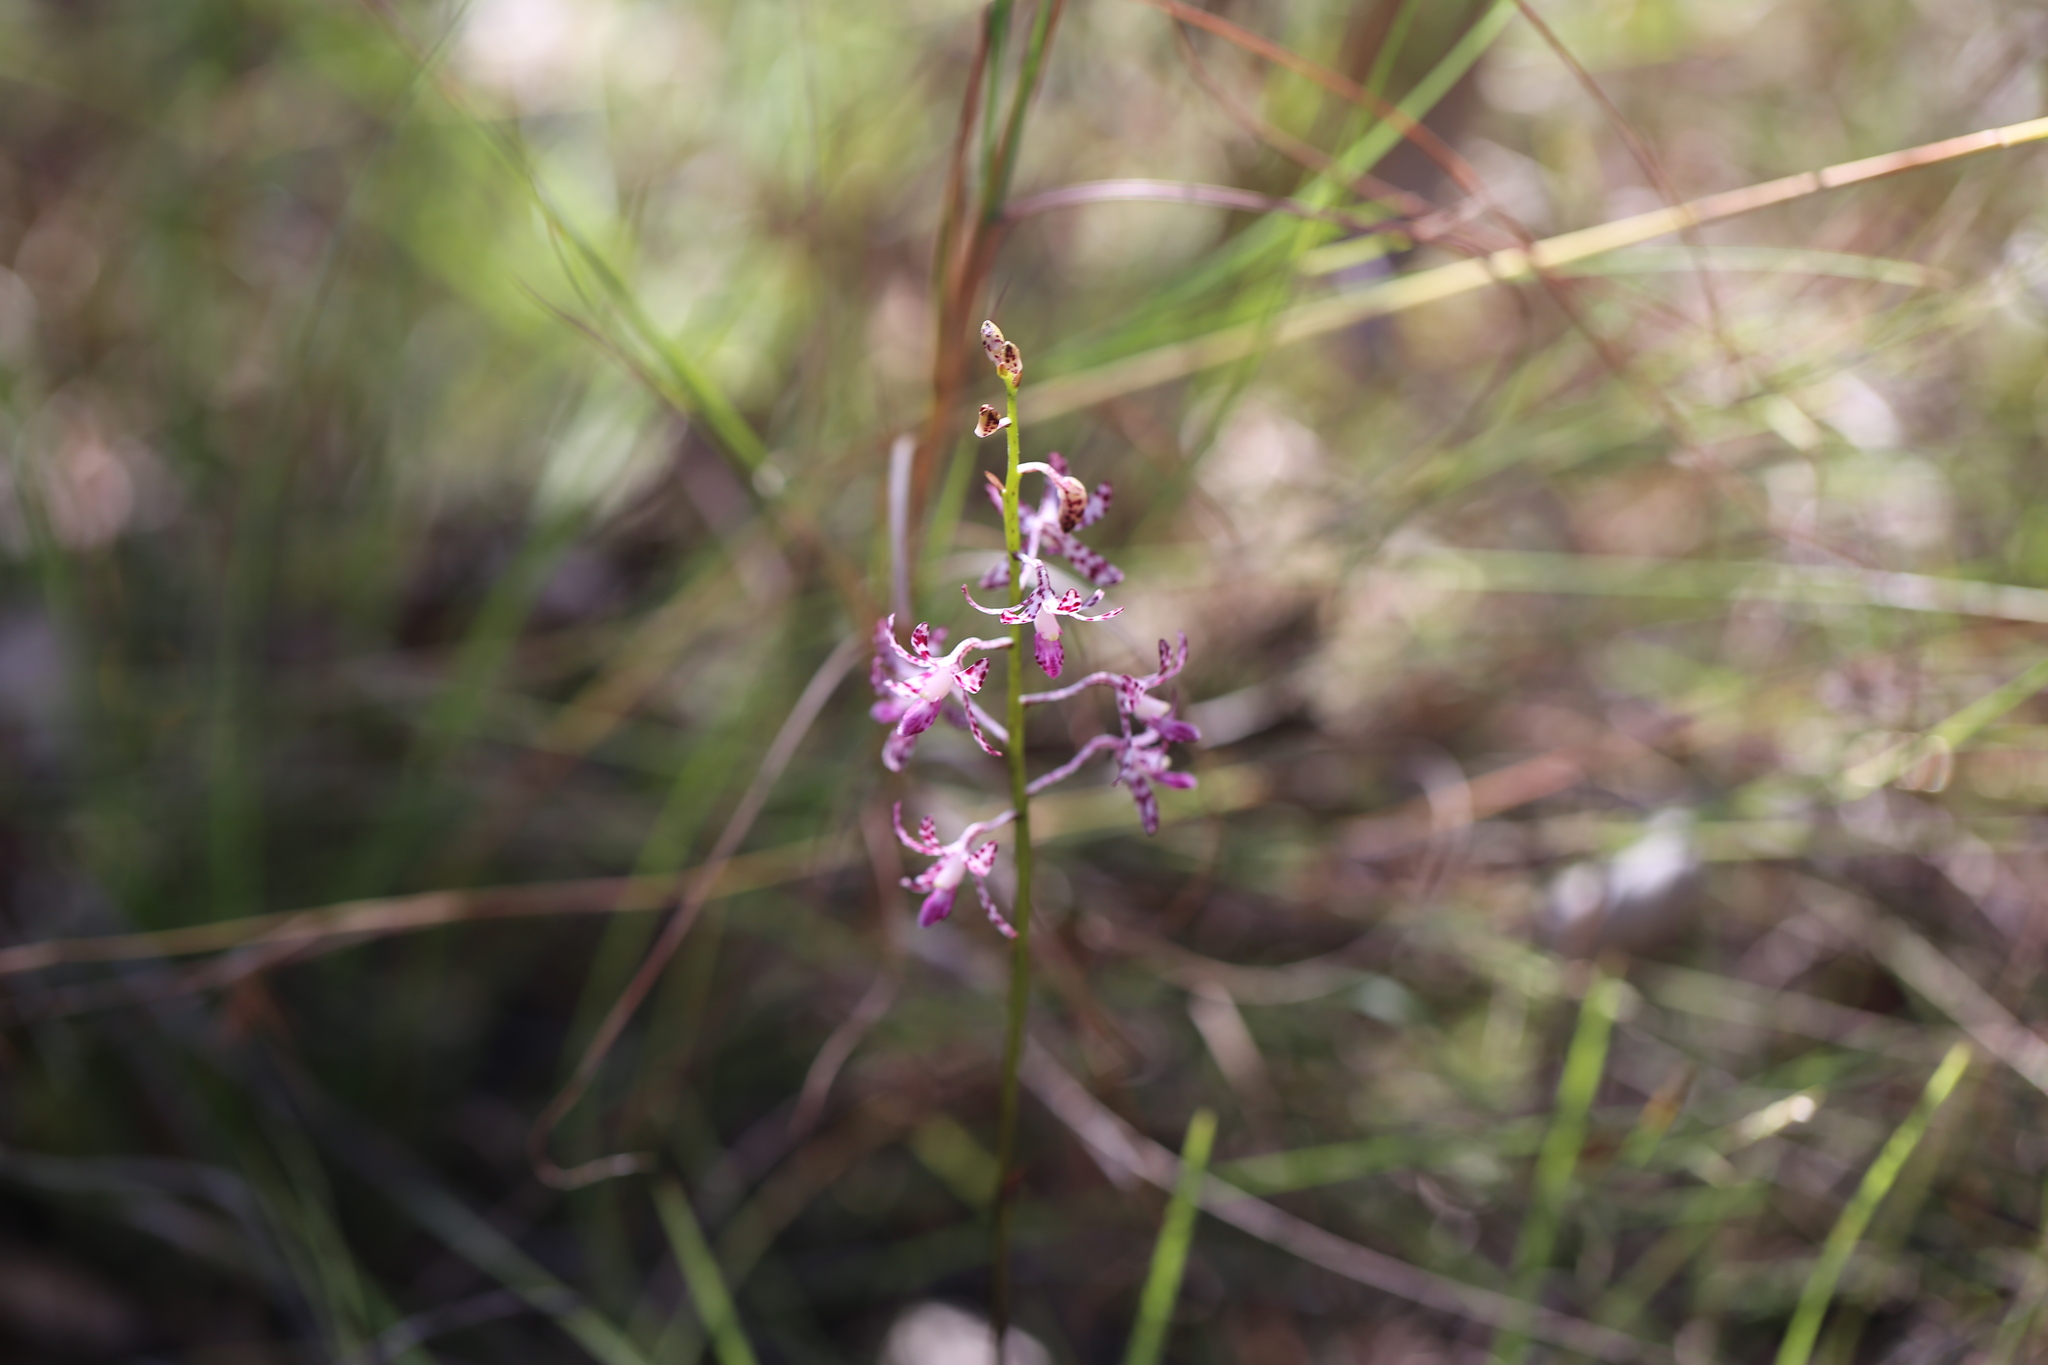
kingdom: Plantae
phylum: Tracheophyta
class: Liliopsida
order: Asparagales
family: Orchidaceae
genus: Dipodium
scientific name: Dipodium variegatum
